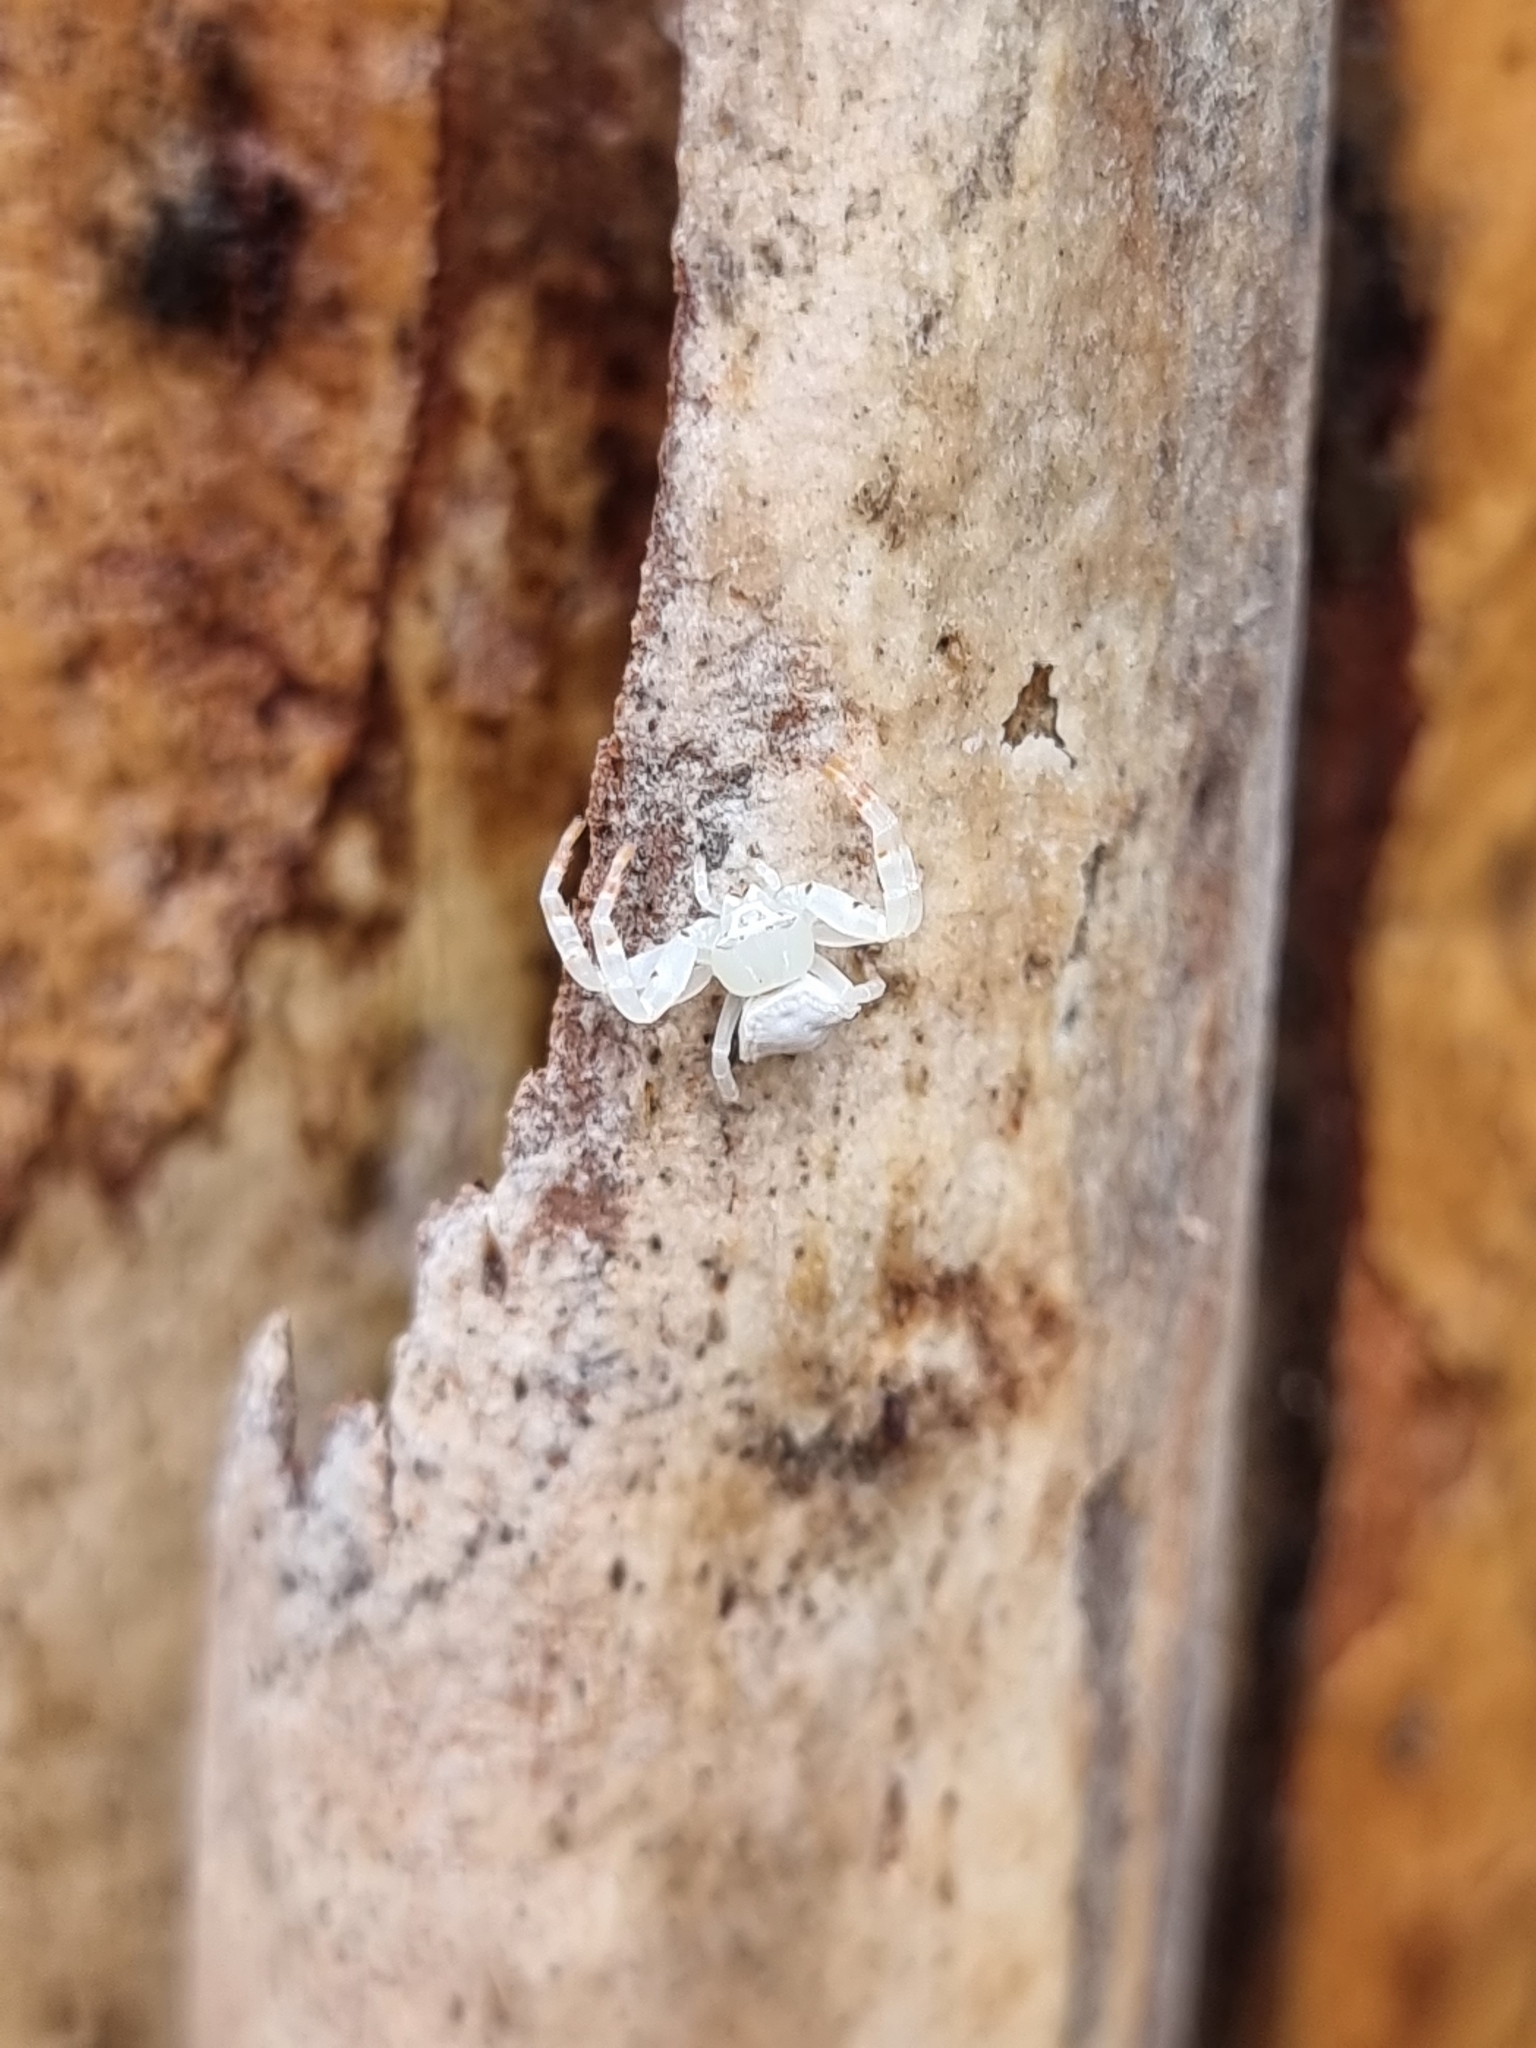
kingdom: Animalia
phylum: Arthropoda
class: Arachnida
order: Araneae
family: Thomisidae
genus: Thomisus
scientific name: Thomisus spectabilis
